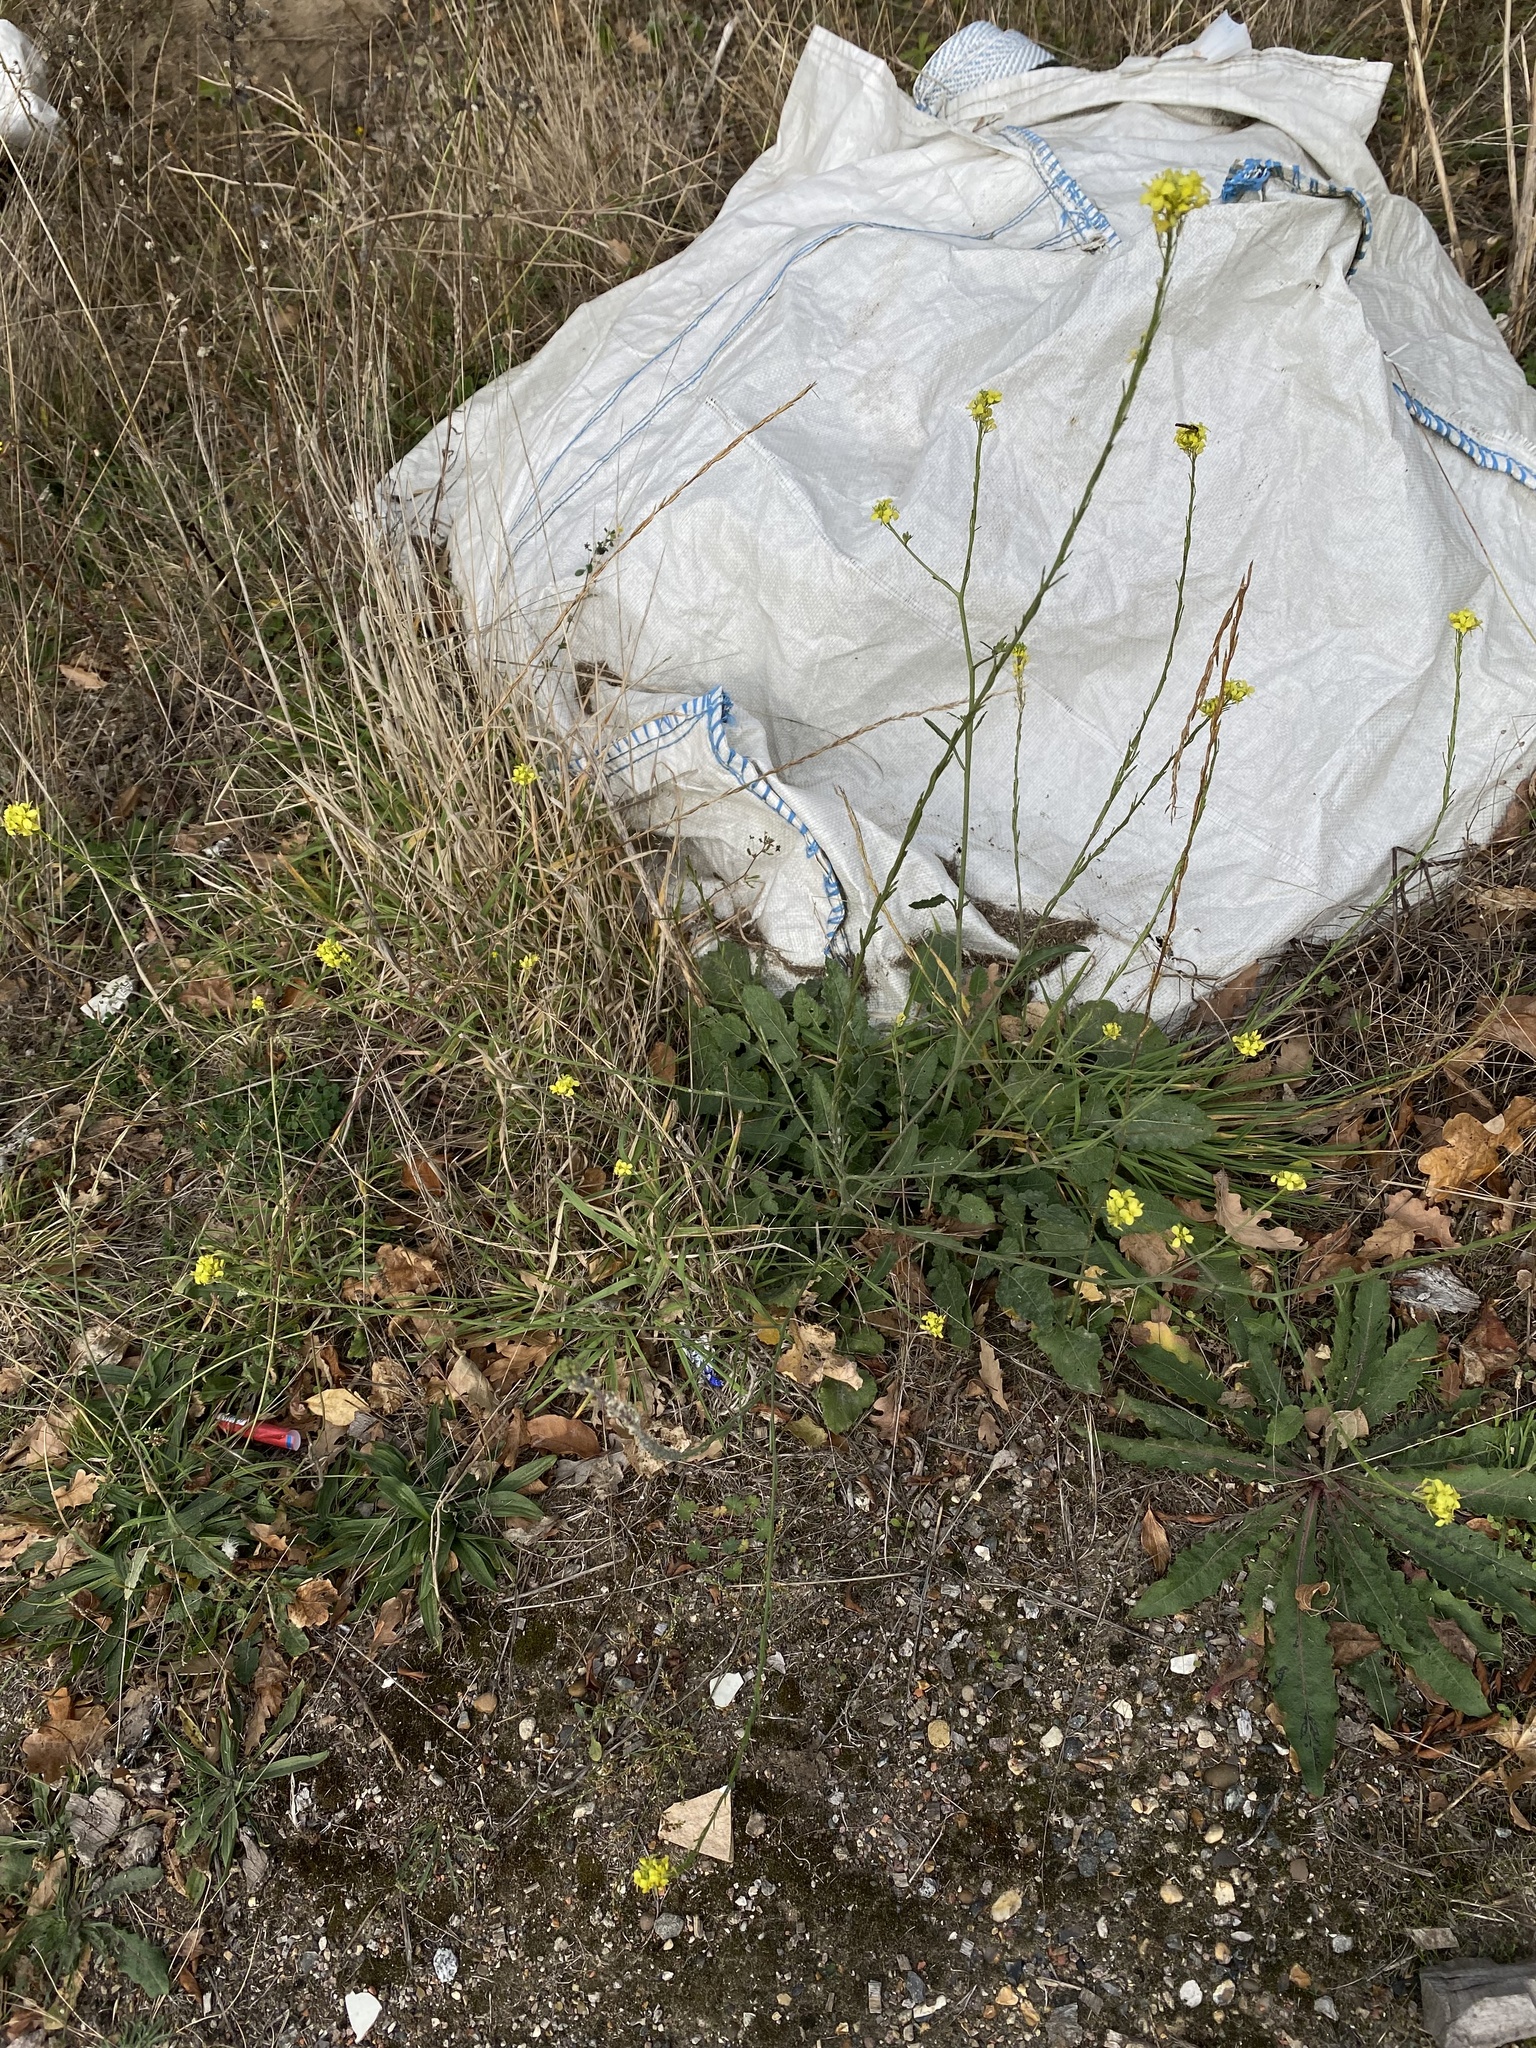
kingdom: Plantae
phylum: Tracheophyta
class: Magnoliopsida
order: Brassicales
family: Brassicaceae
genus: Hirschfeldia
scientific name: Hirschfeldia incana
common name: Hoary mustard
